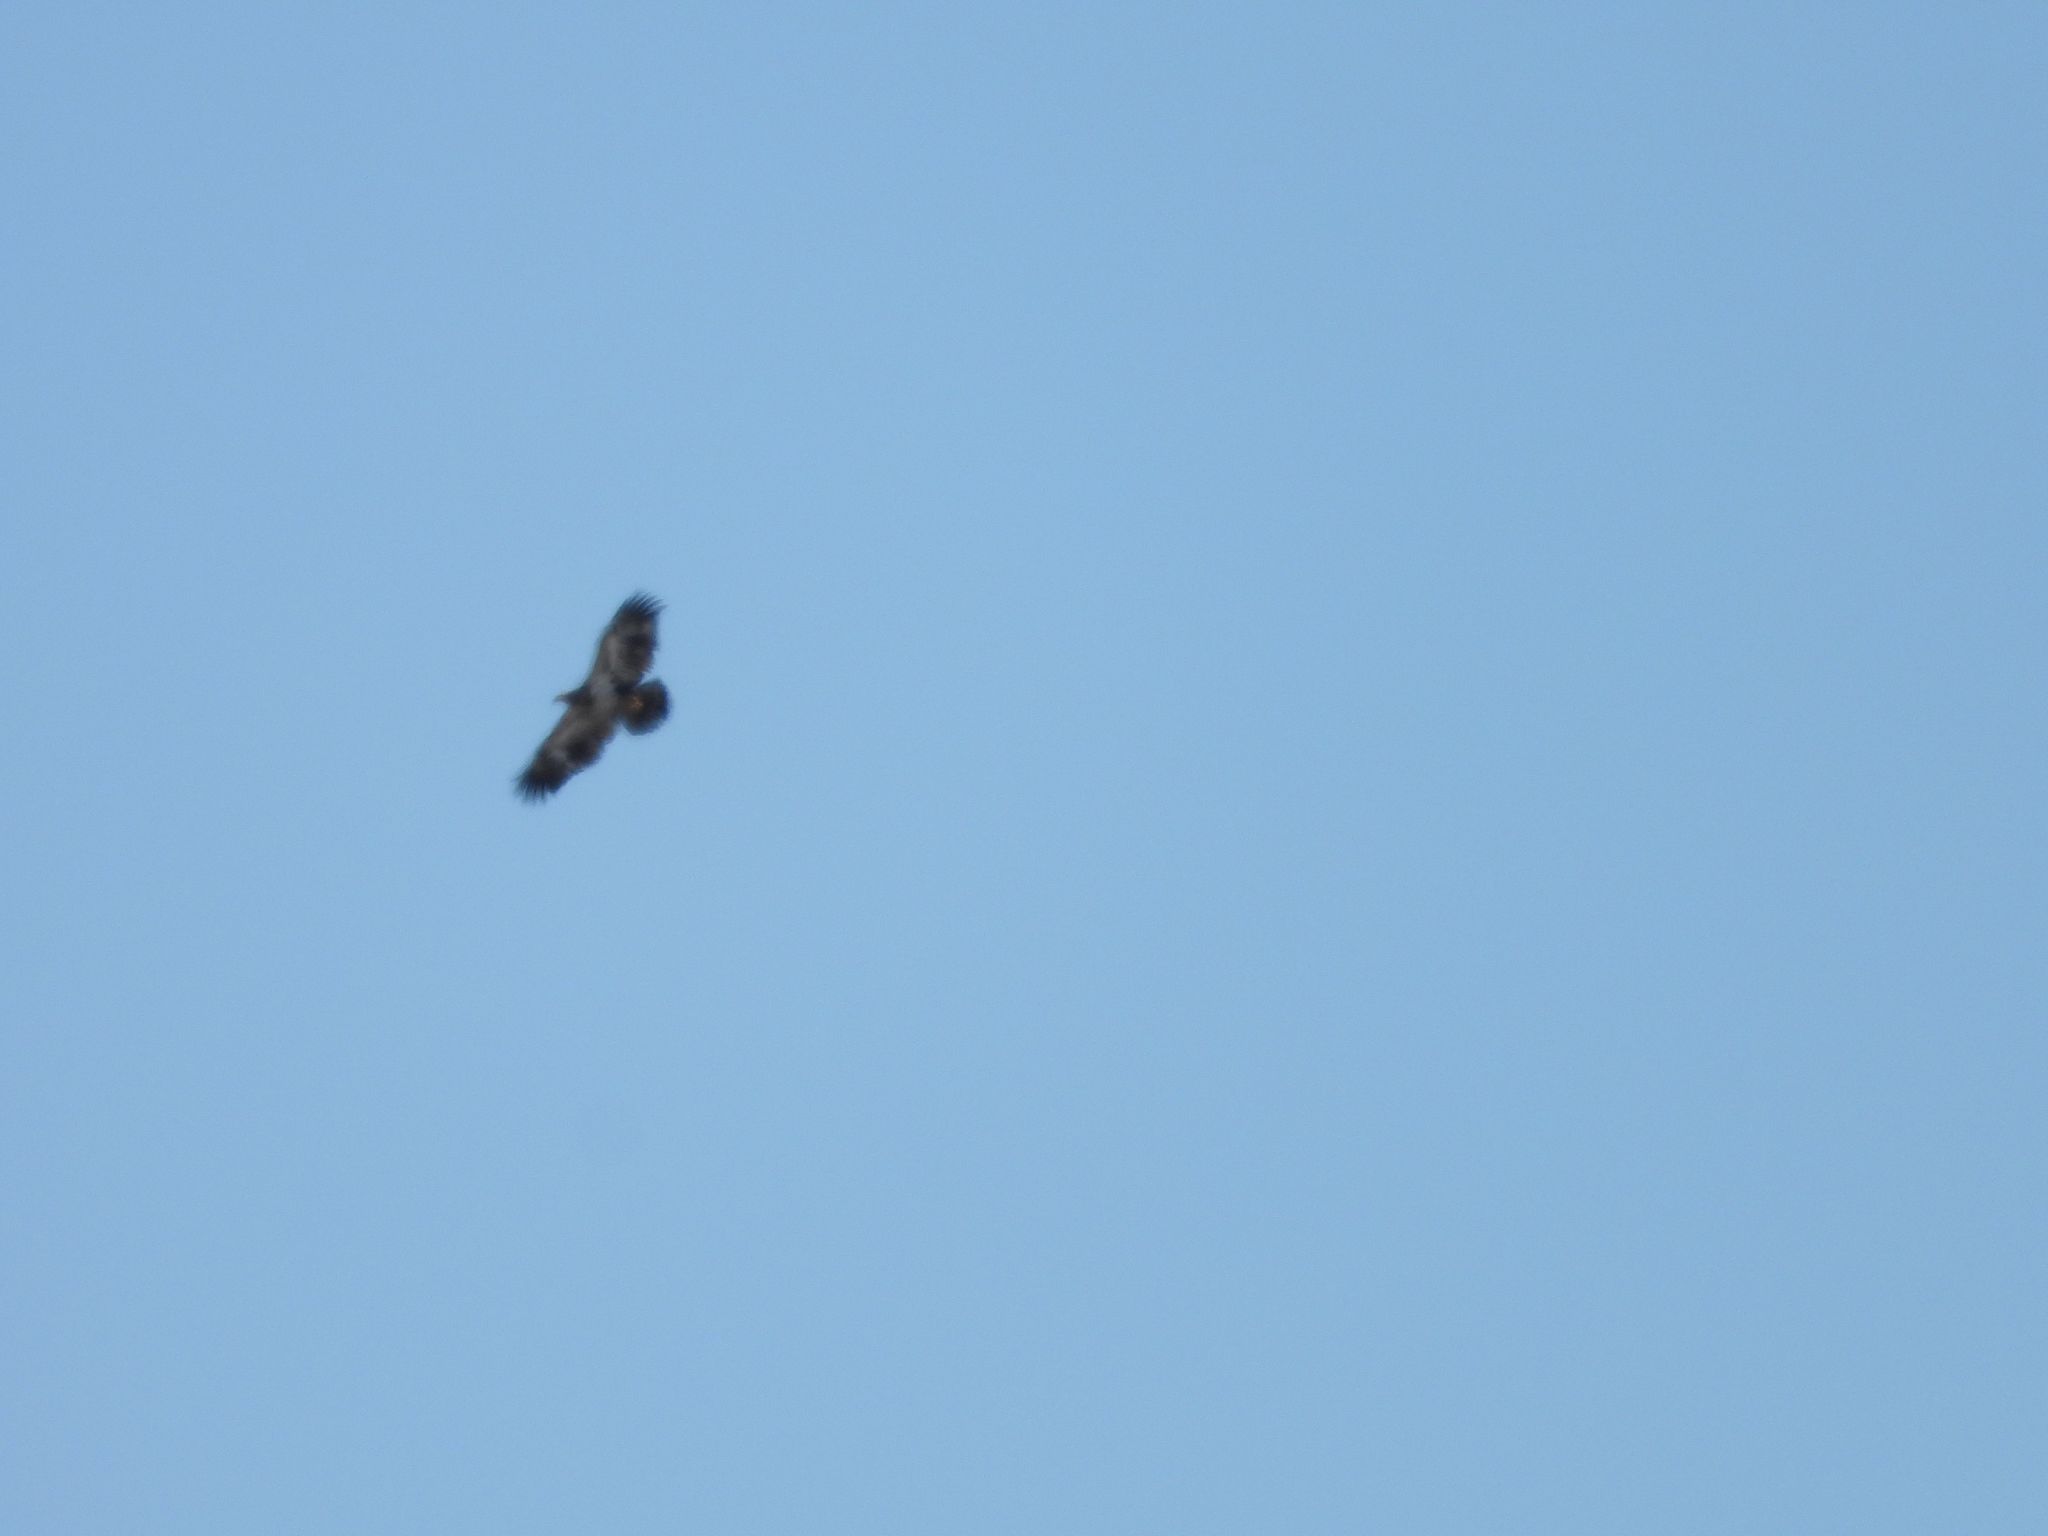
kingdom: Animalia
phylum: Chordata
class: Aves
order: Accipitriformes
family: Accipitridae
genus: Haliaeetus
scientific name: Haliaeetus leucocephalus
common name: Bald eagle
